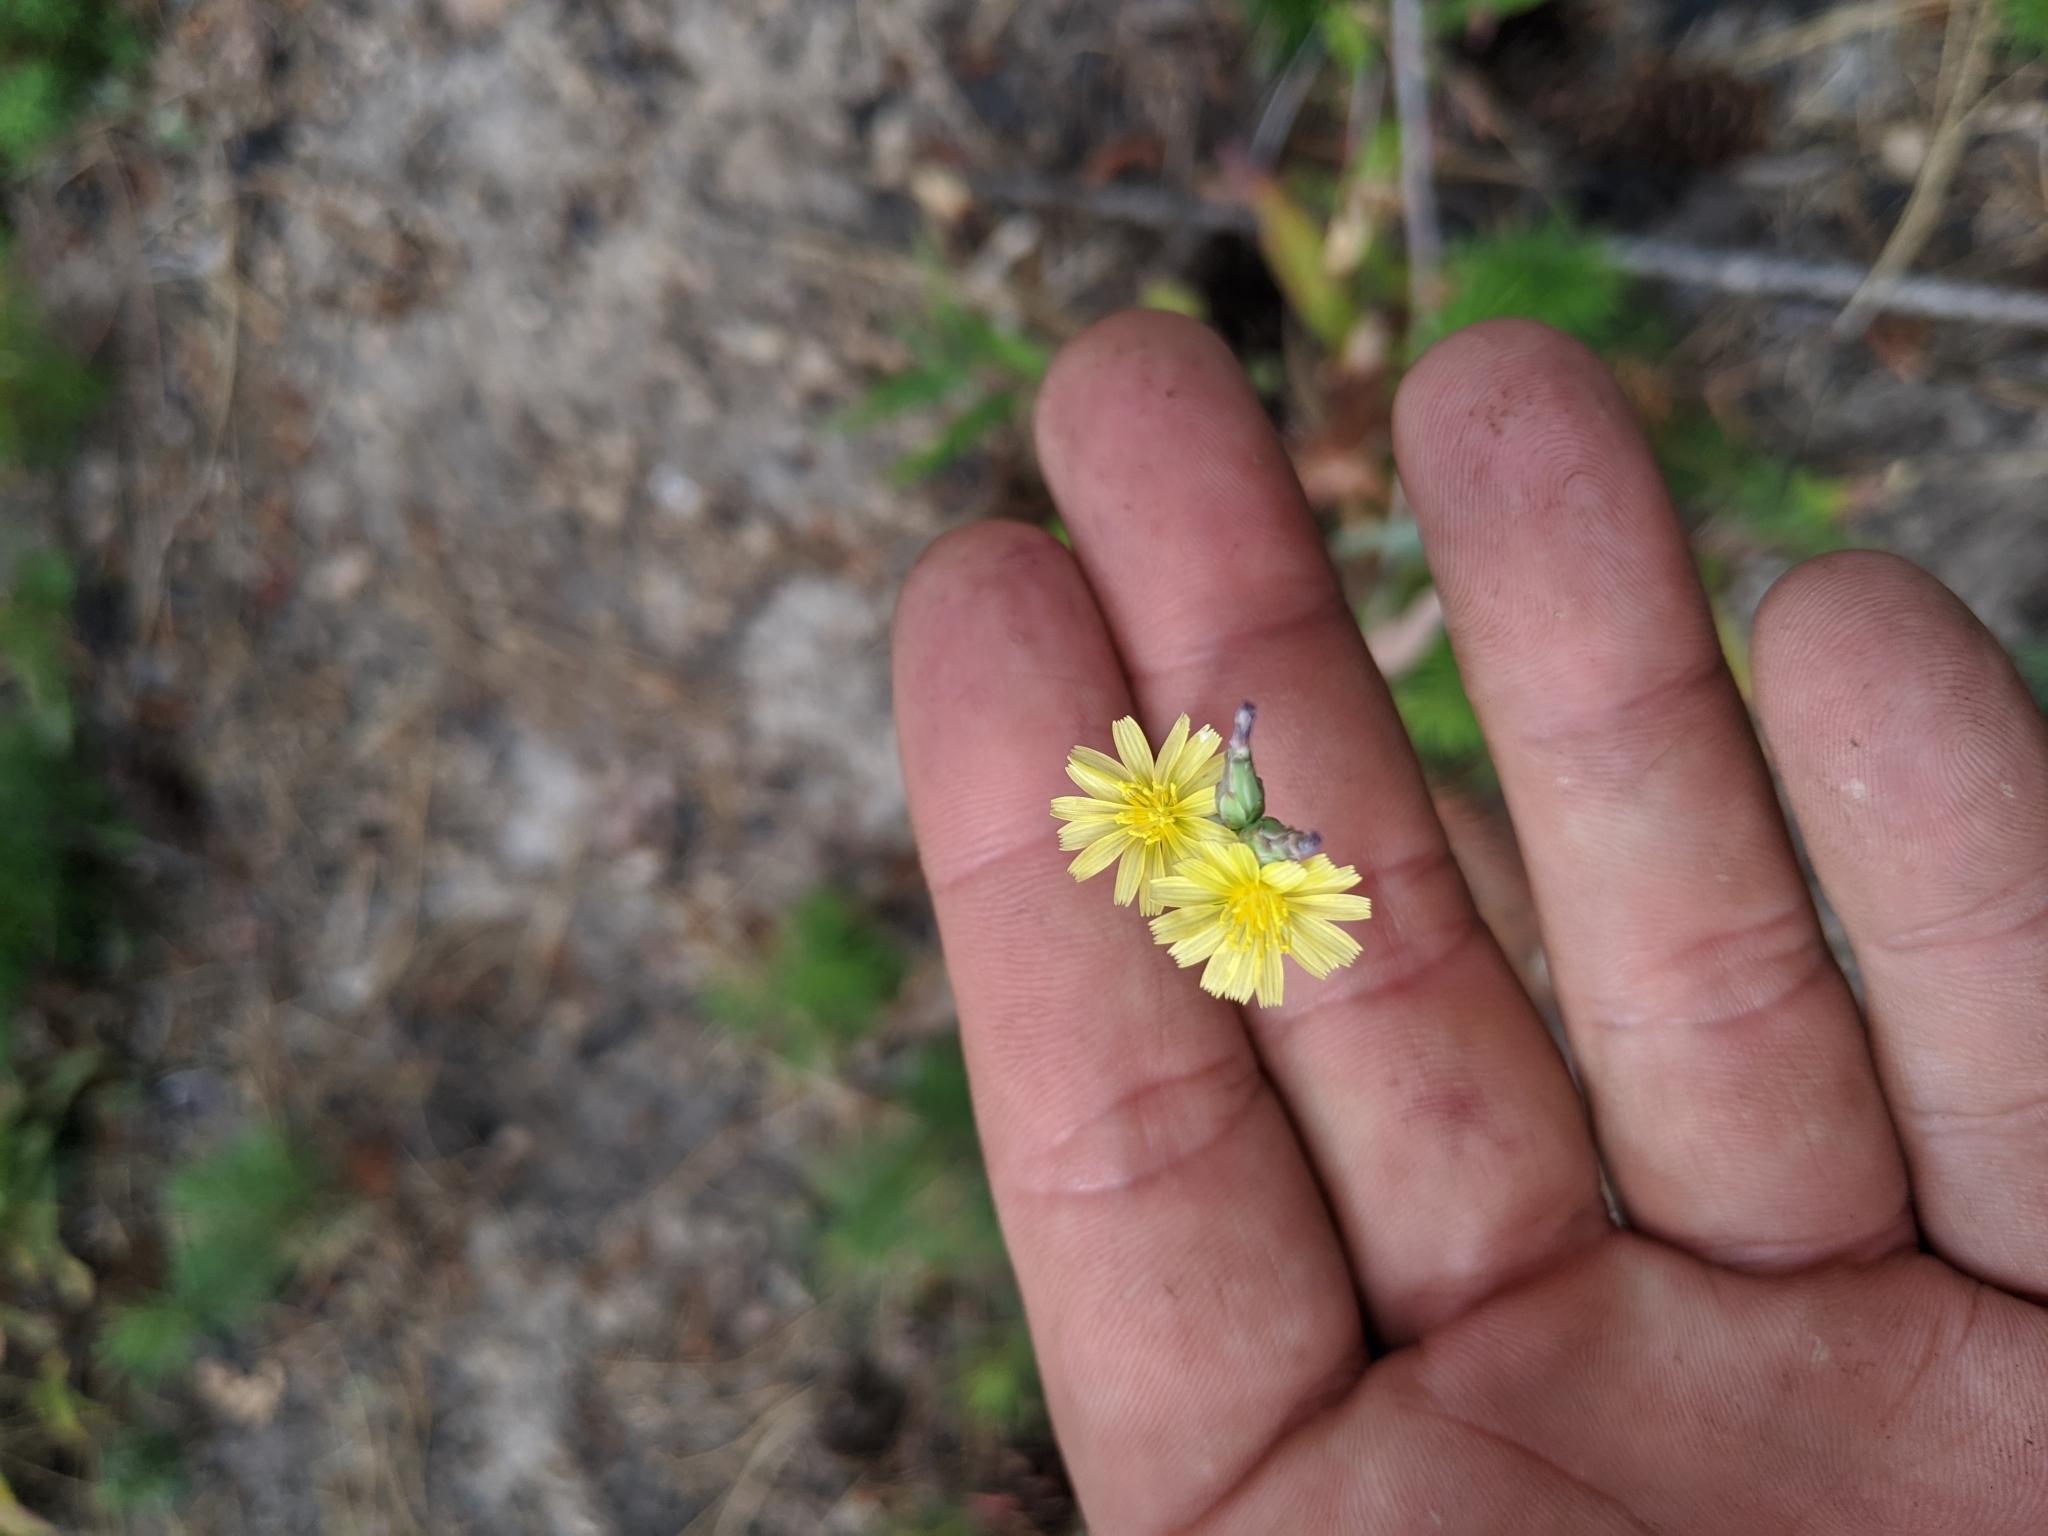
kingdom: Plantae
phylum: Tracheophyta
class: Magnoliopsida
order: Asterales
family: Asteraceae
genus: Lactuca
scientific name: Lactuca serriola
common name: Prickly lettuce
